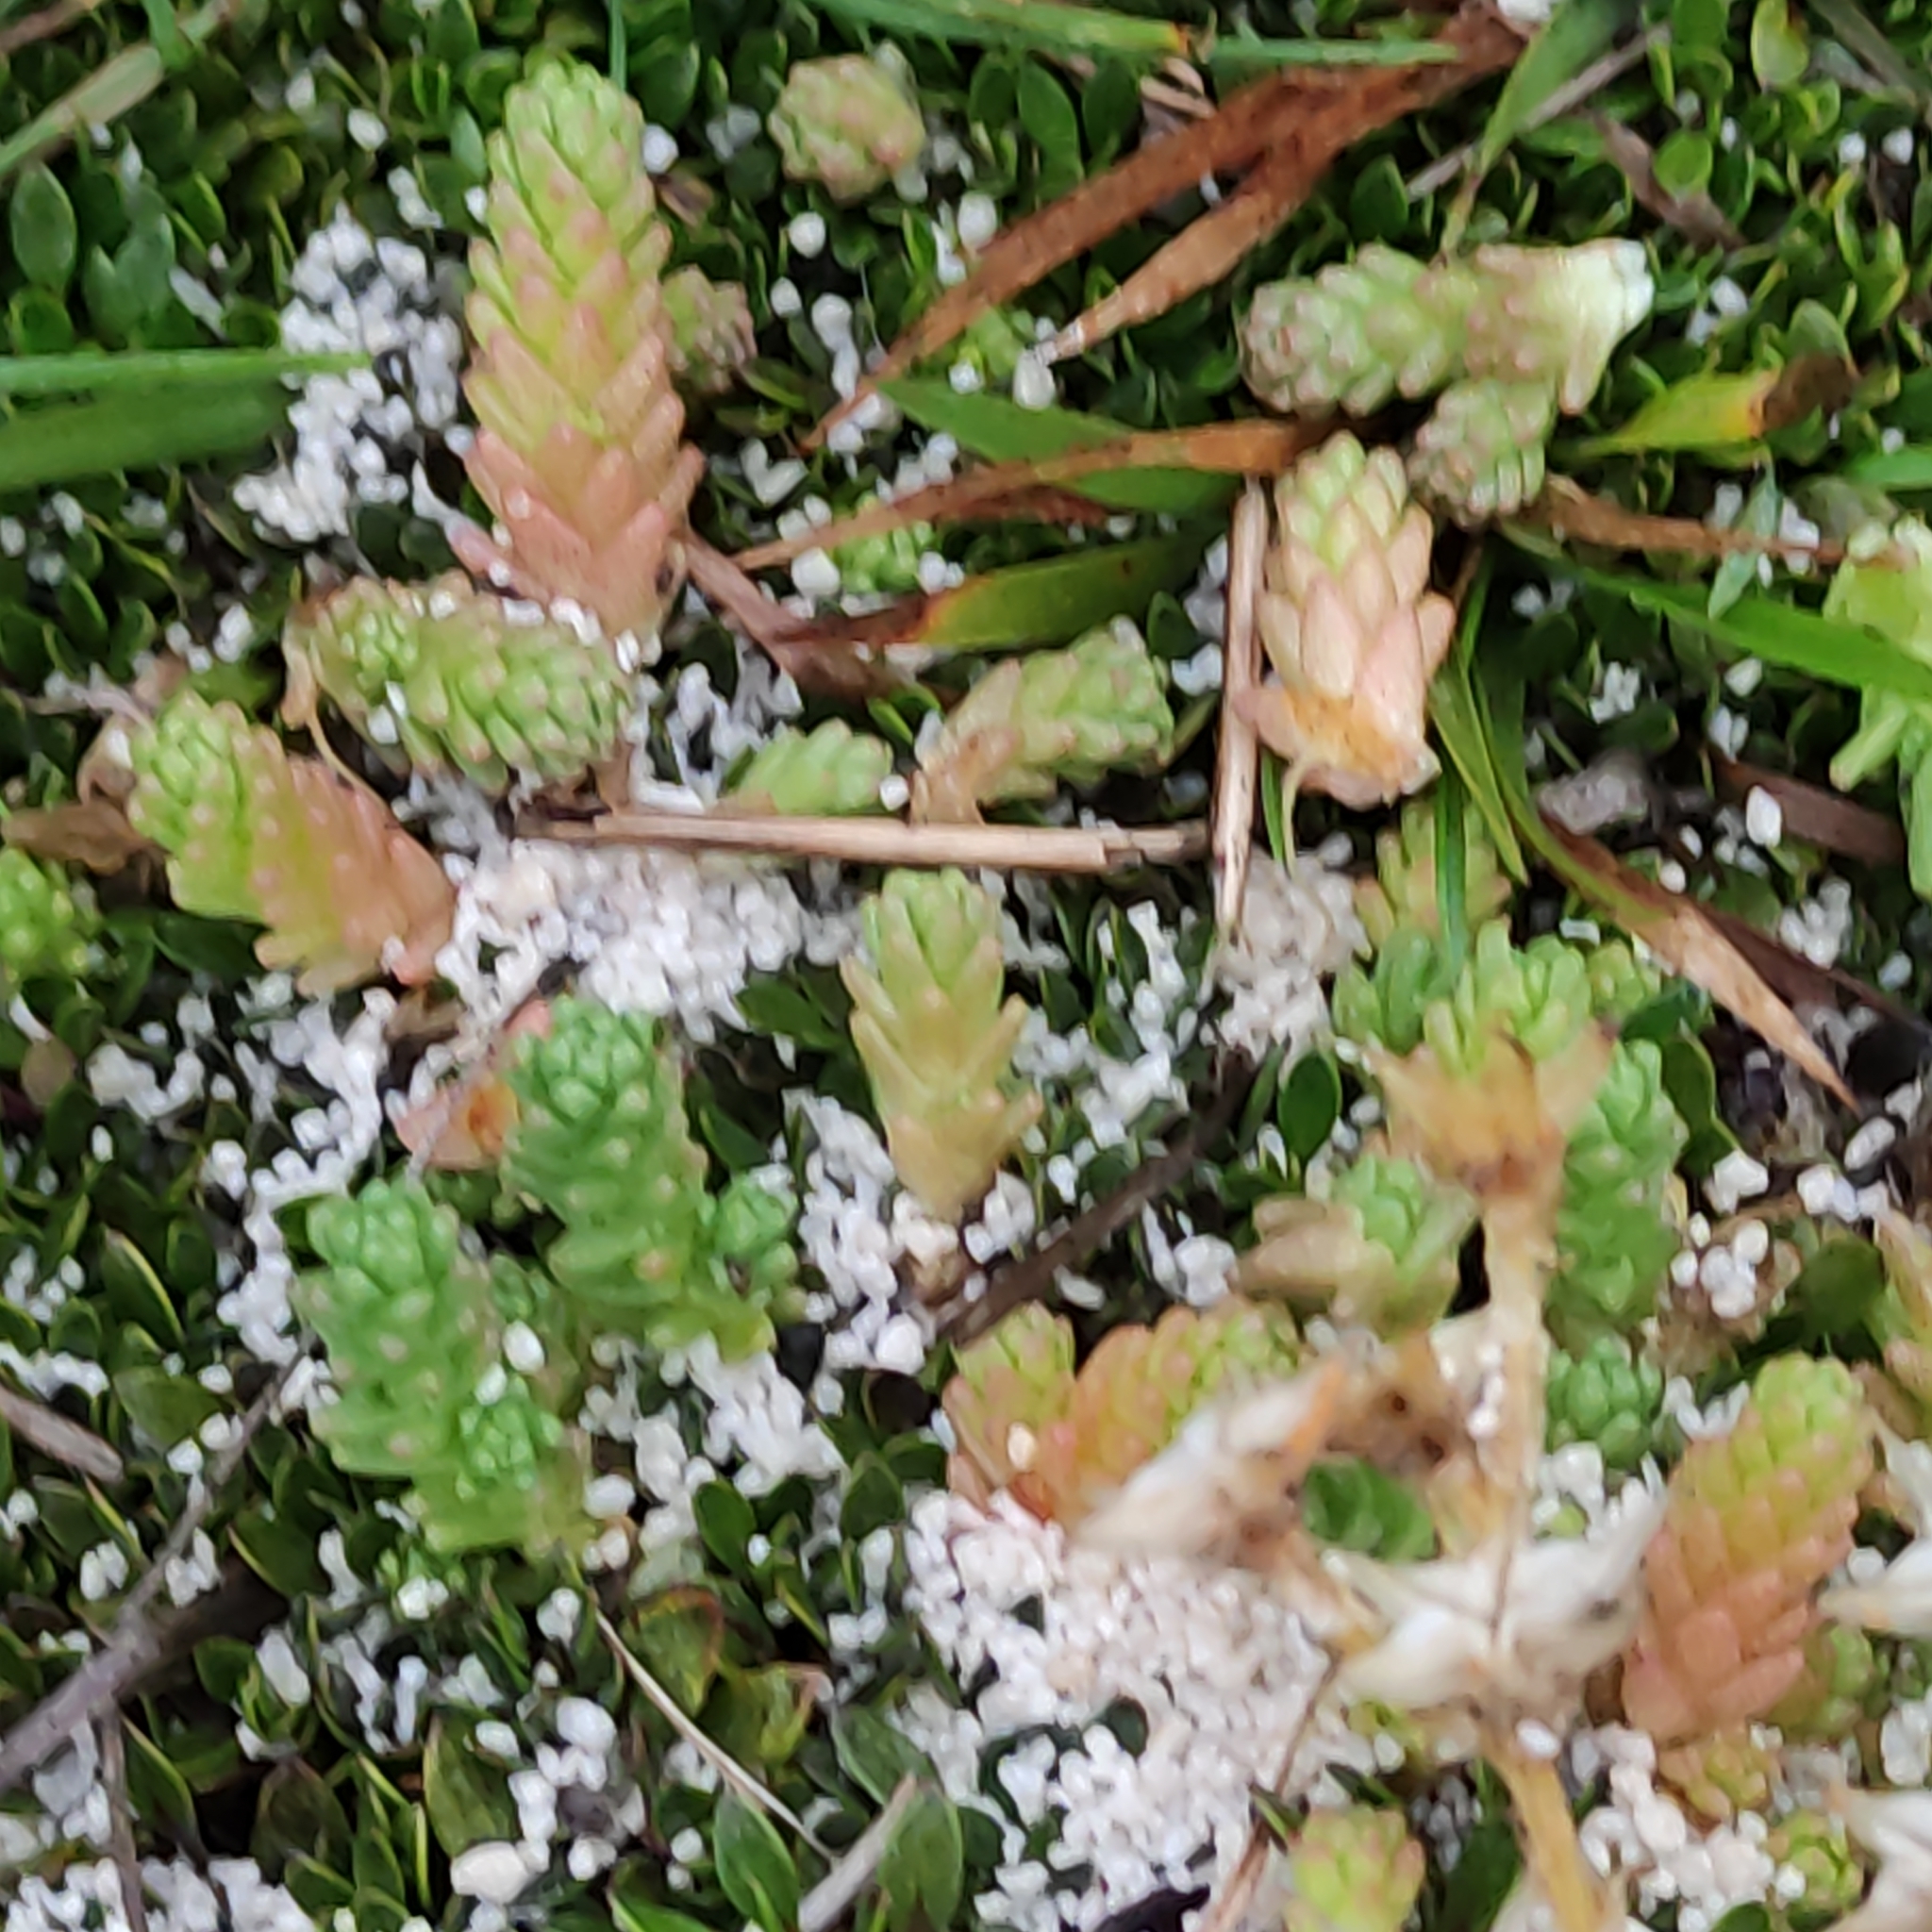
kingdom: Plantae
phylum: Tracheophyta
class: Magnoliopsida
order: Saxifragales
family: Crassulaceae
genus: Sedum
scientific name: Sedum acre
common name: Biting stonecrop
